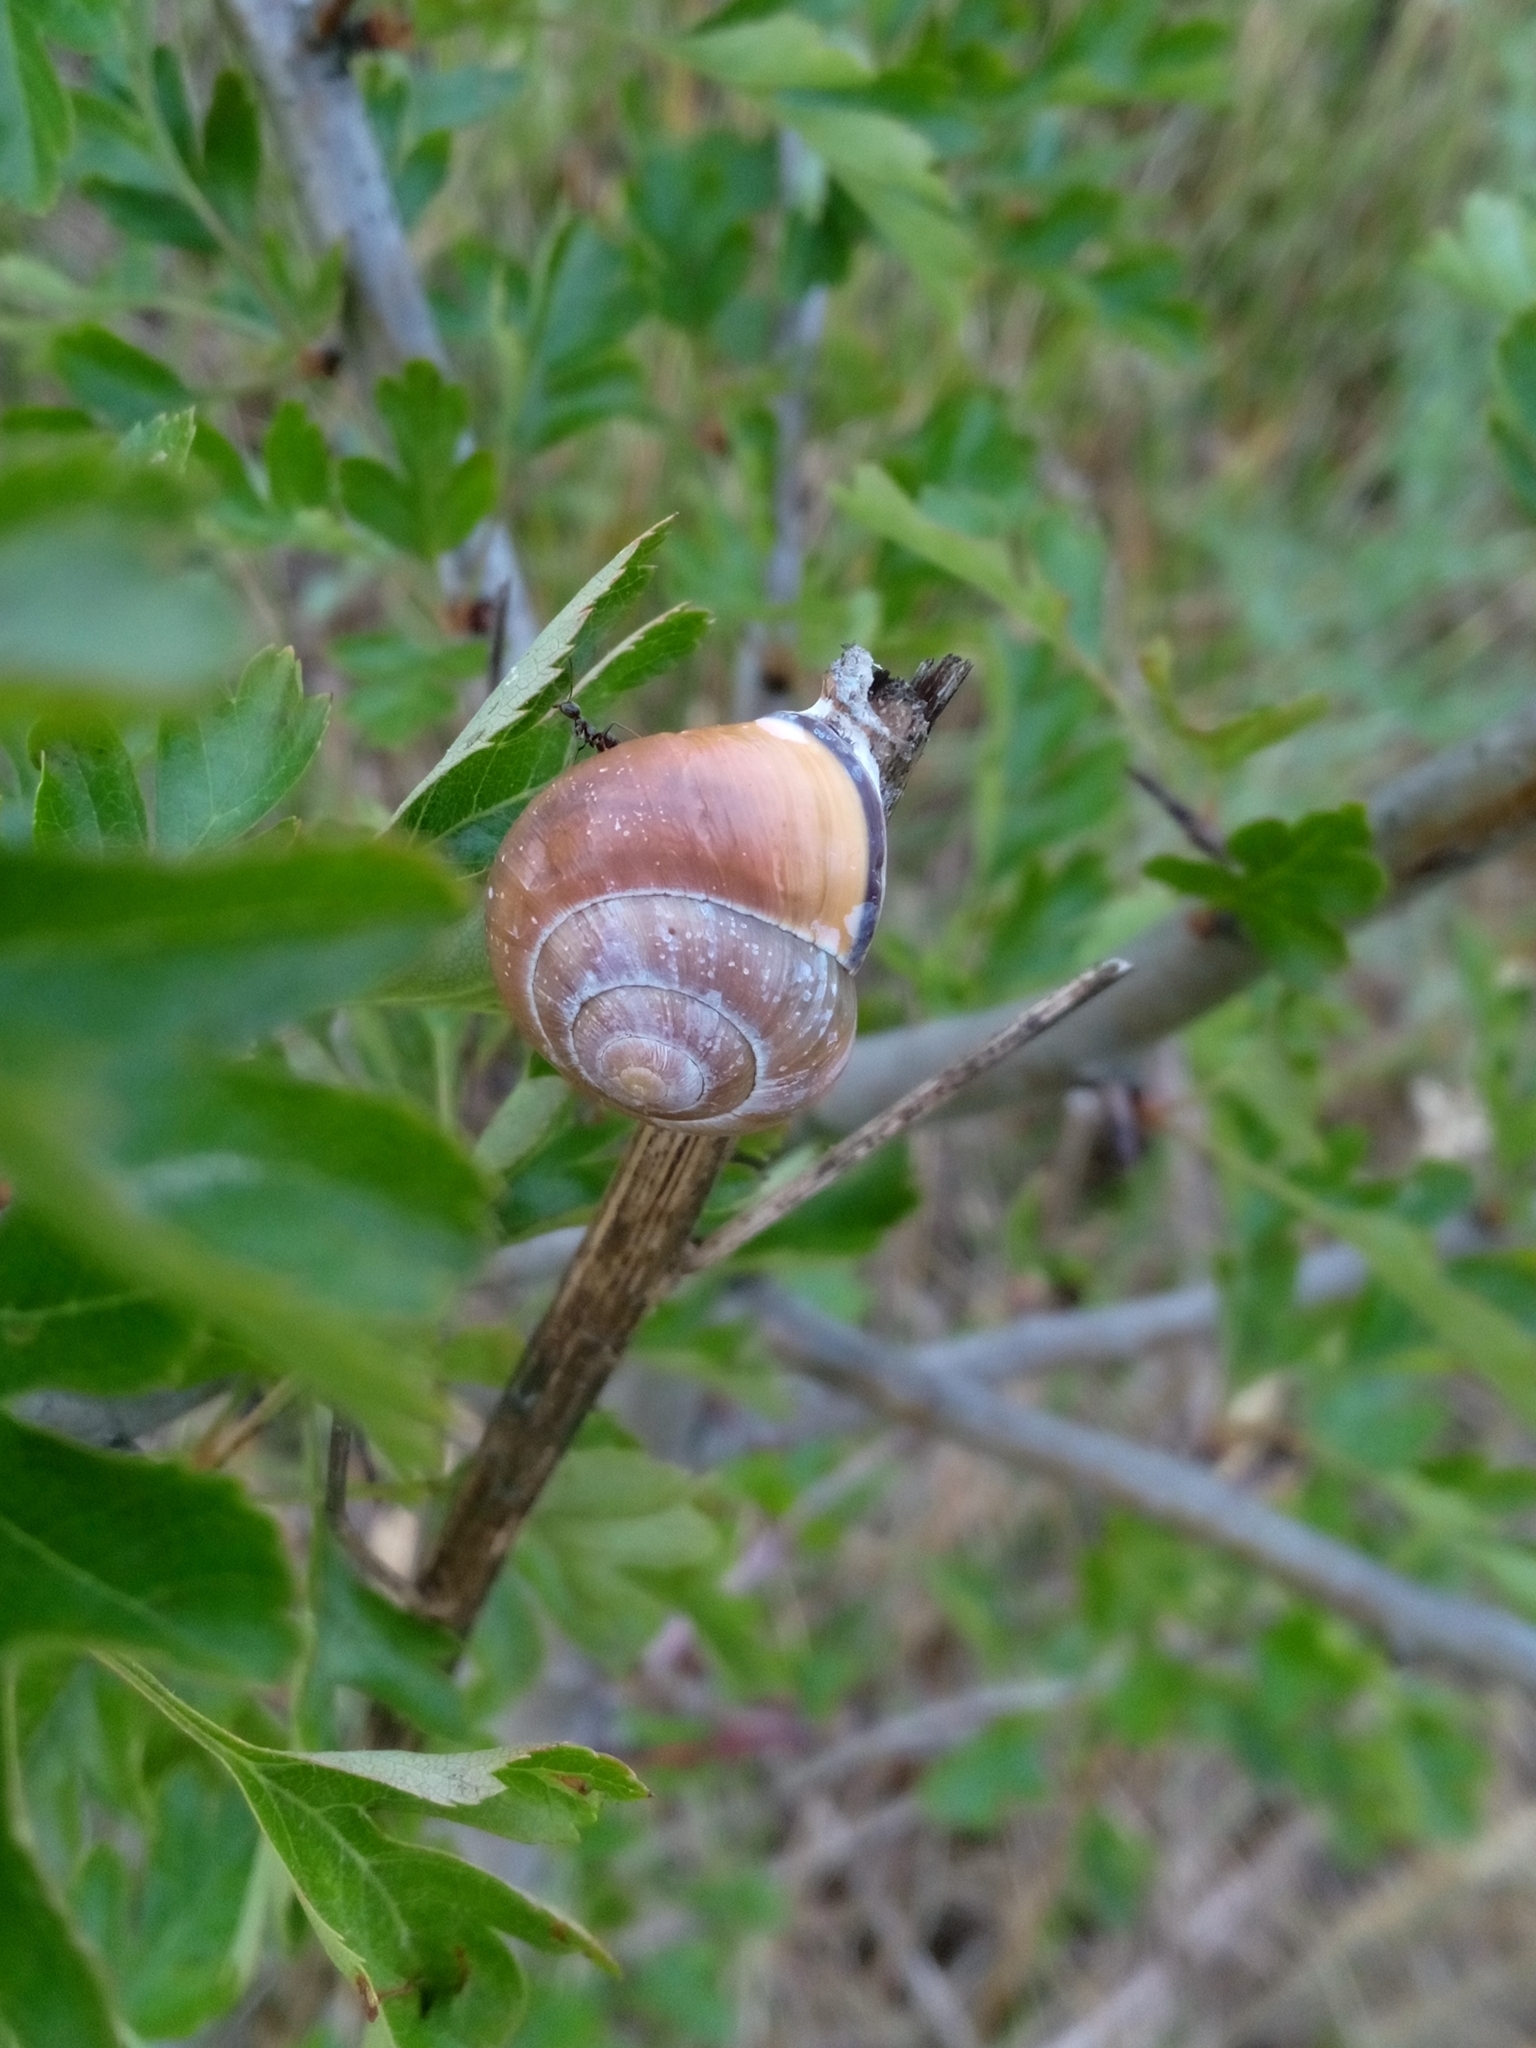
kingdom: Animalia
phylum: Mollusca
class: Gastropoda
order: Stylommatophora
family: Helicidae
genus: Cepaea
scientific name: Cepaea nemoralis
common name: Grovesnail
